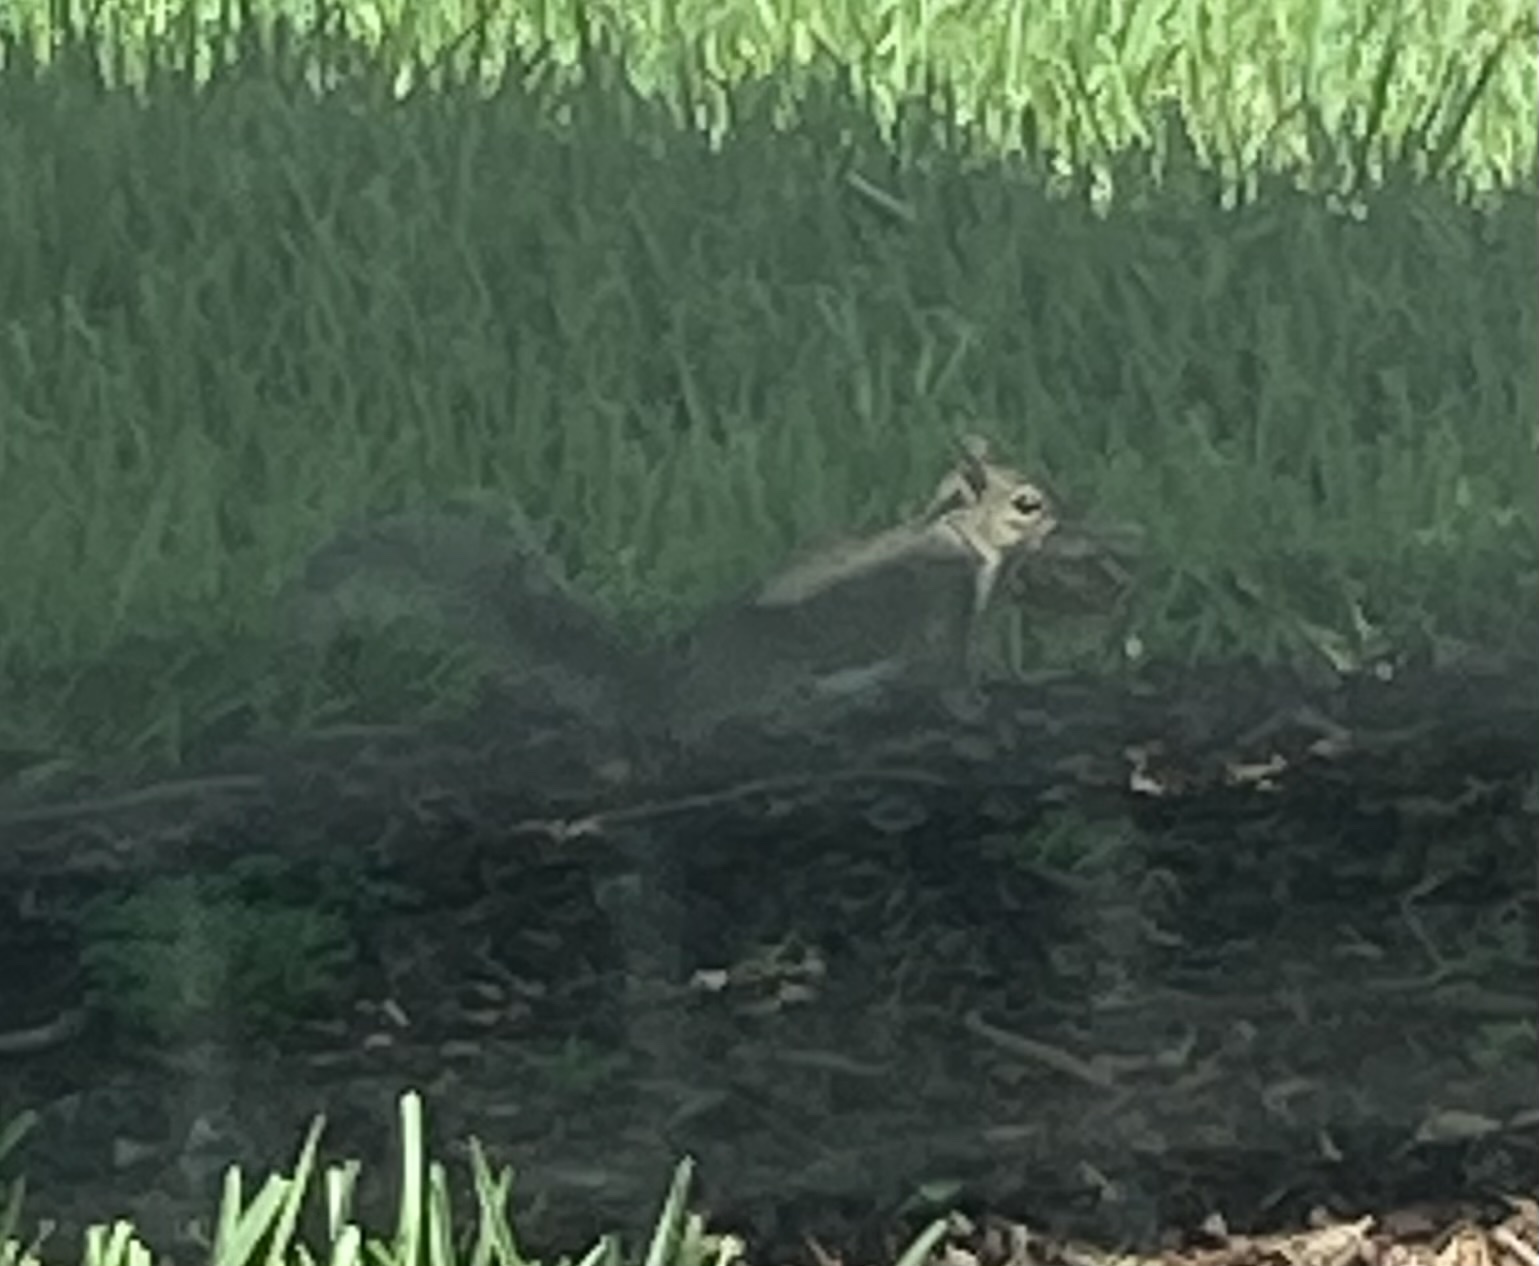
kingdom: Animalia
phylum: Chordata
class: Mammalia
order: Rodentia
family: Sciuridae
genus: Sciurus
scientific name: Sciurus carolinensis
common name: Eastern gray squirrel
